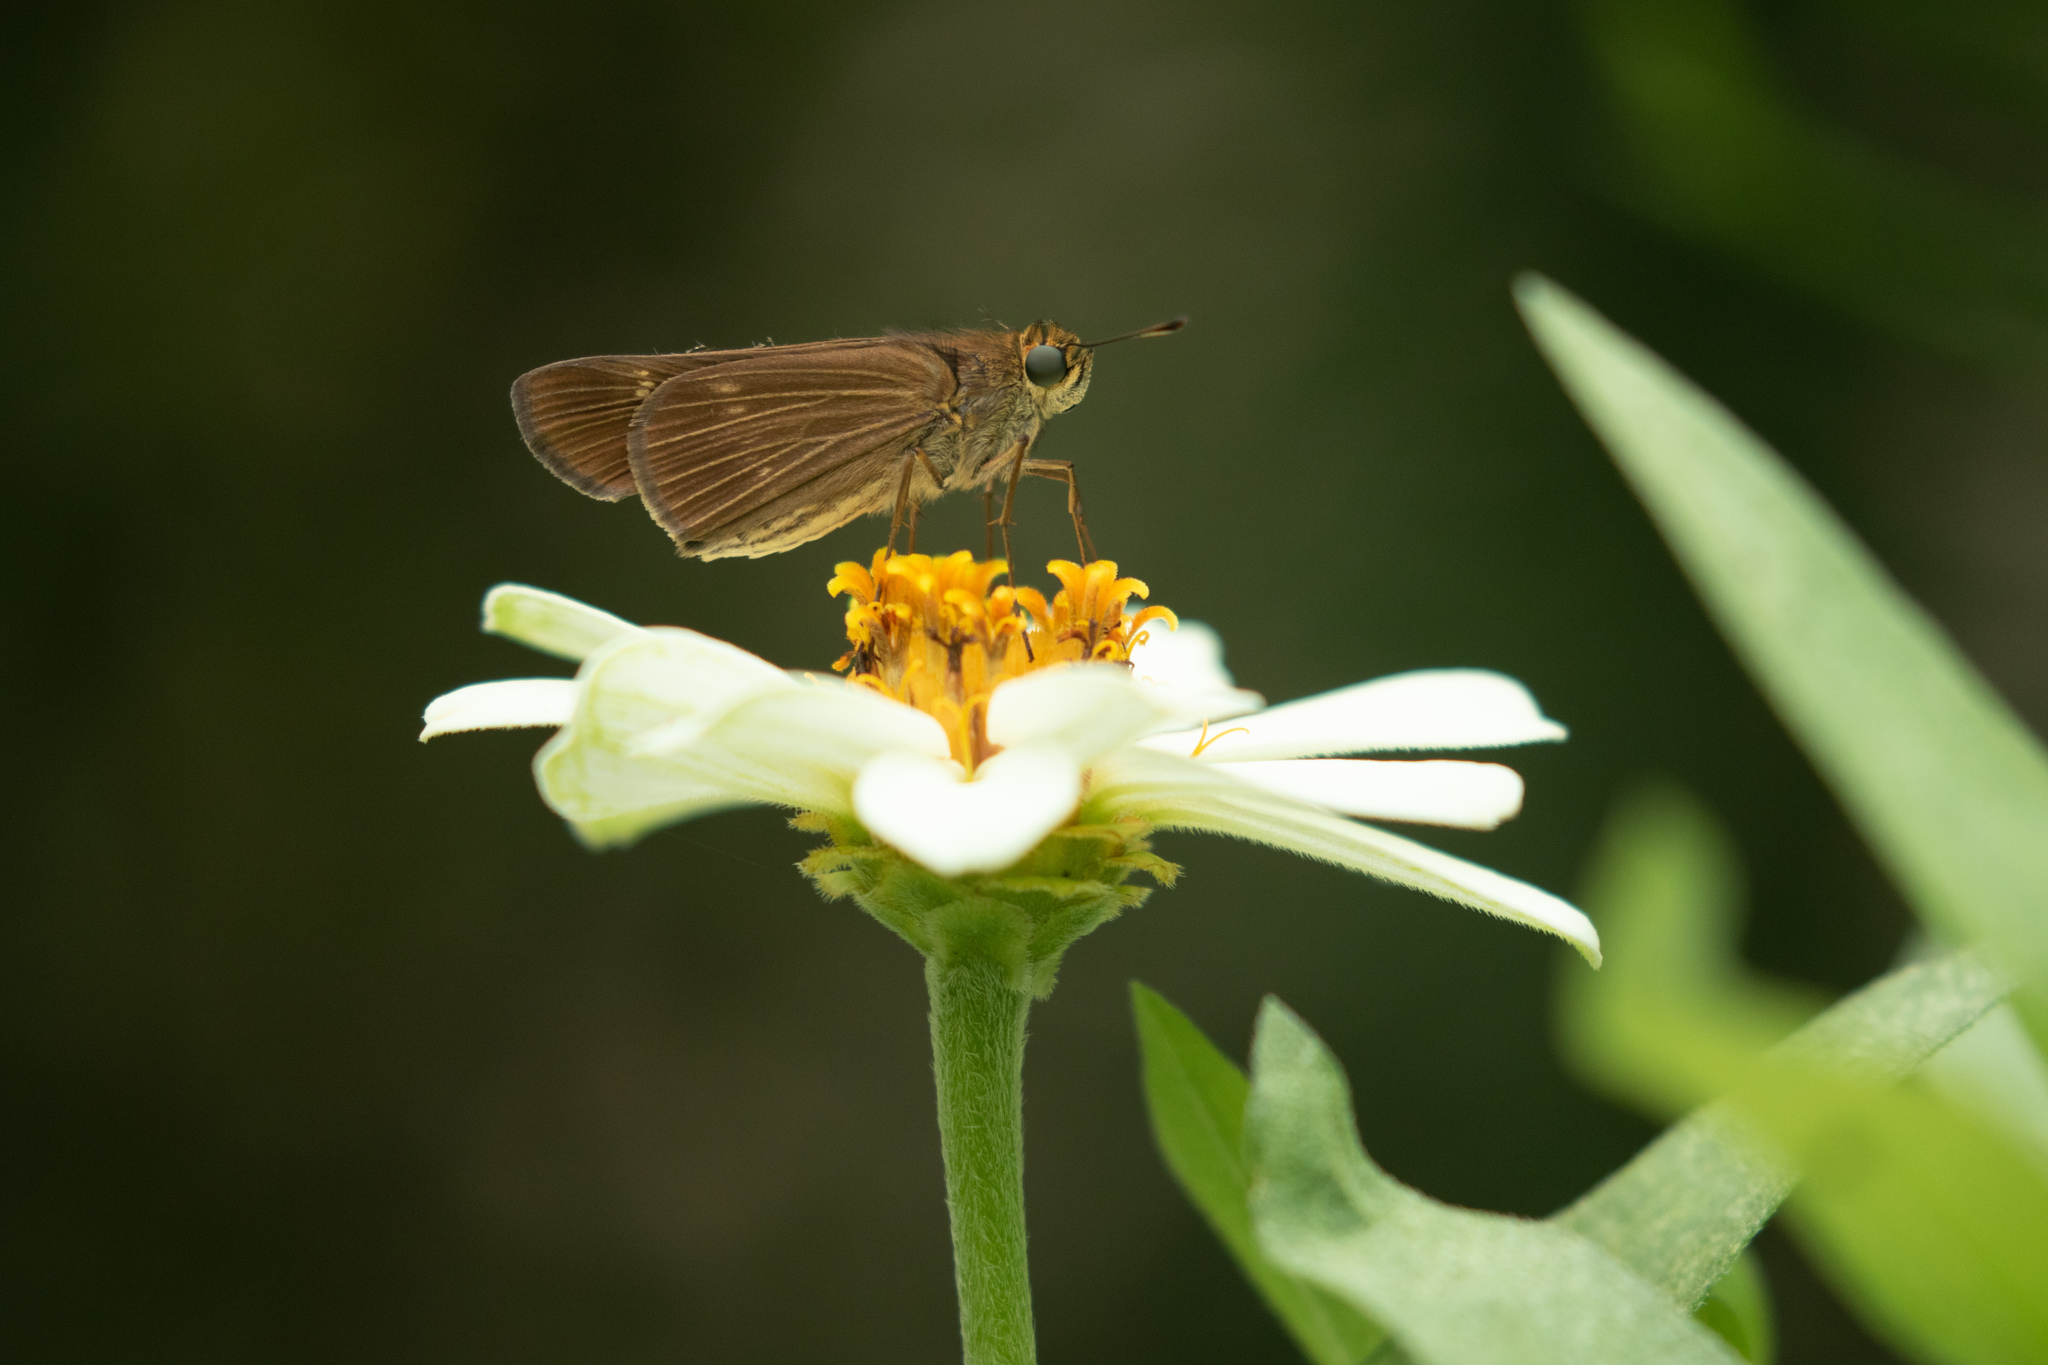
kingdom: Animalia
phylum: Arthropoda
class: Insecta
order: Lepidoptera
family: Hesperiidae
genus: Panoquina
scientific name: Panoquina ocola
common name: Ocola skipper
